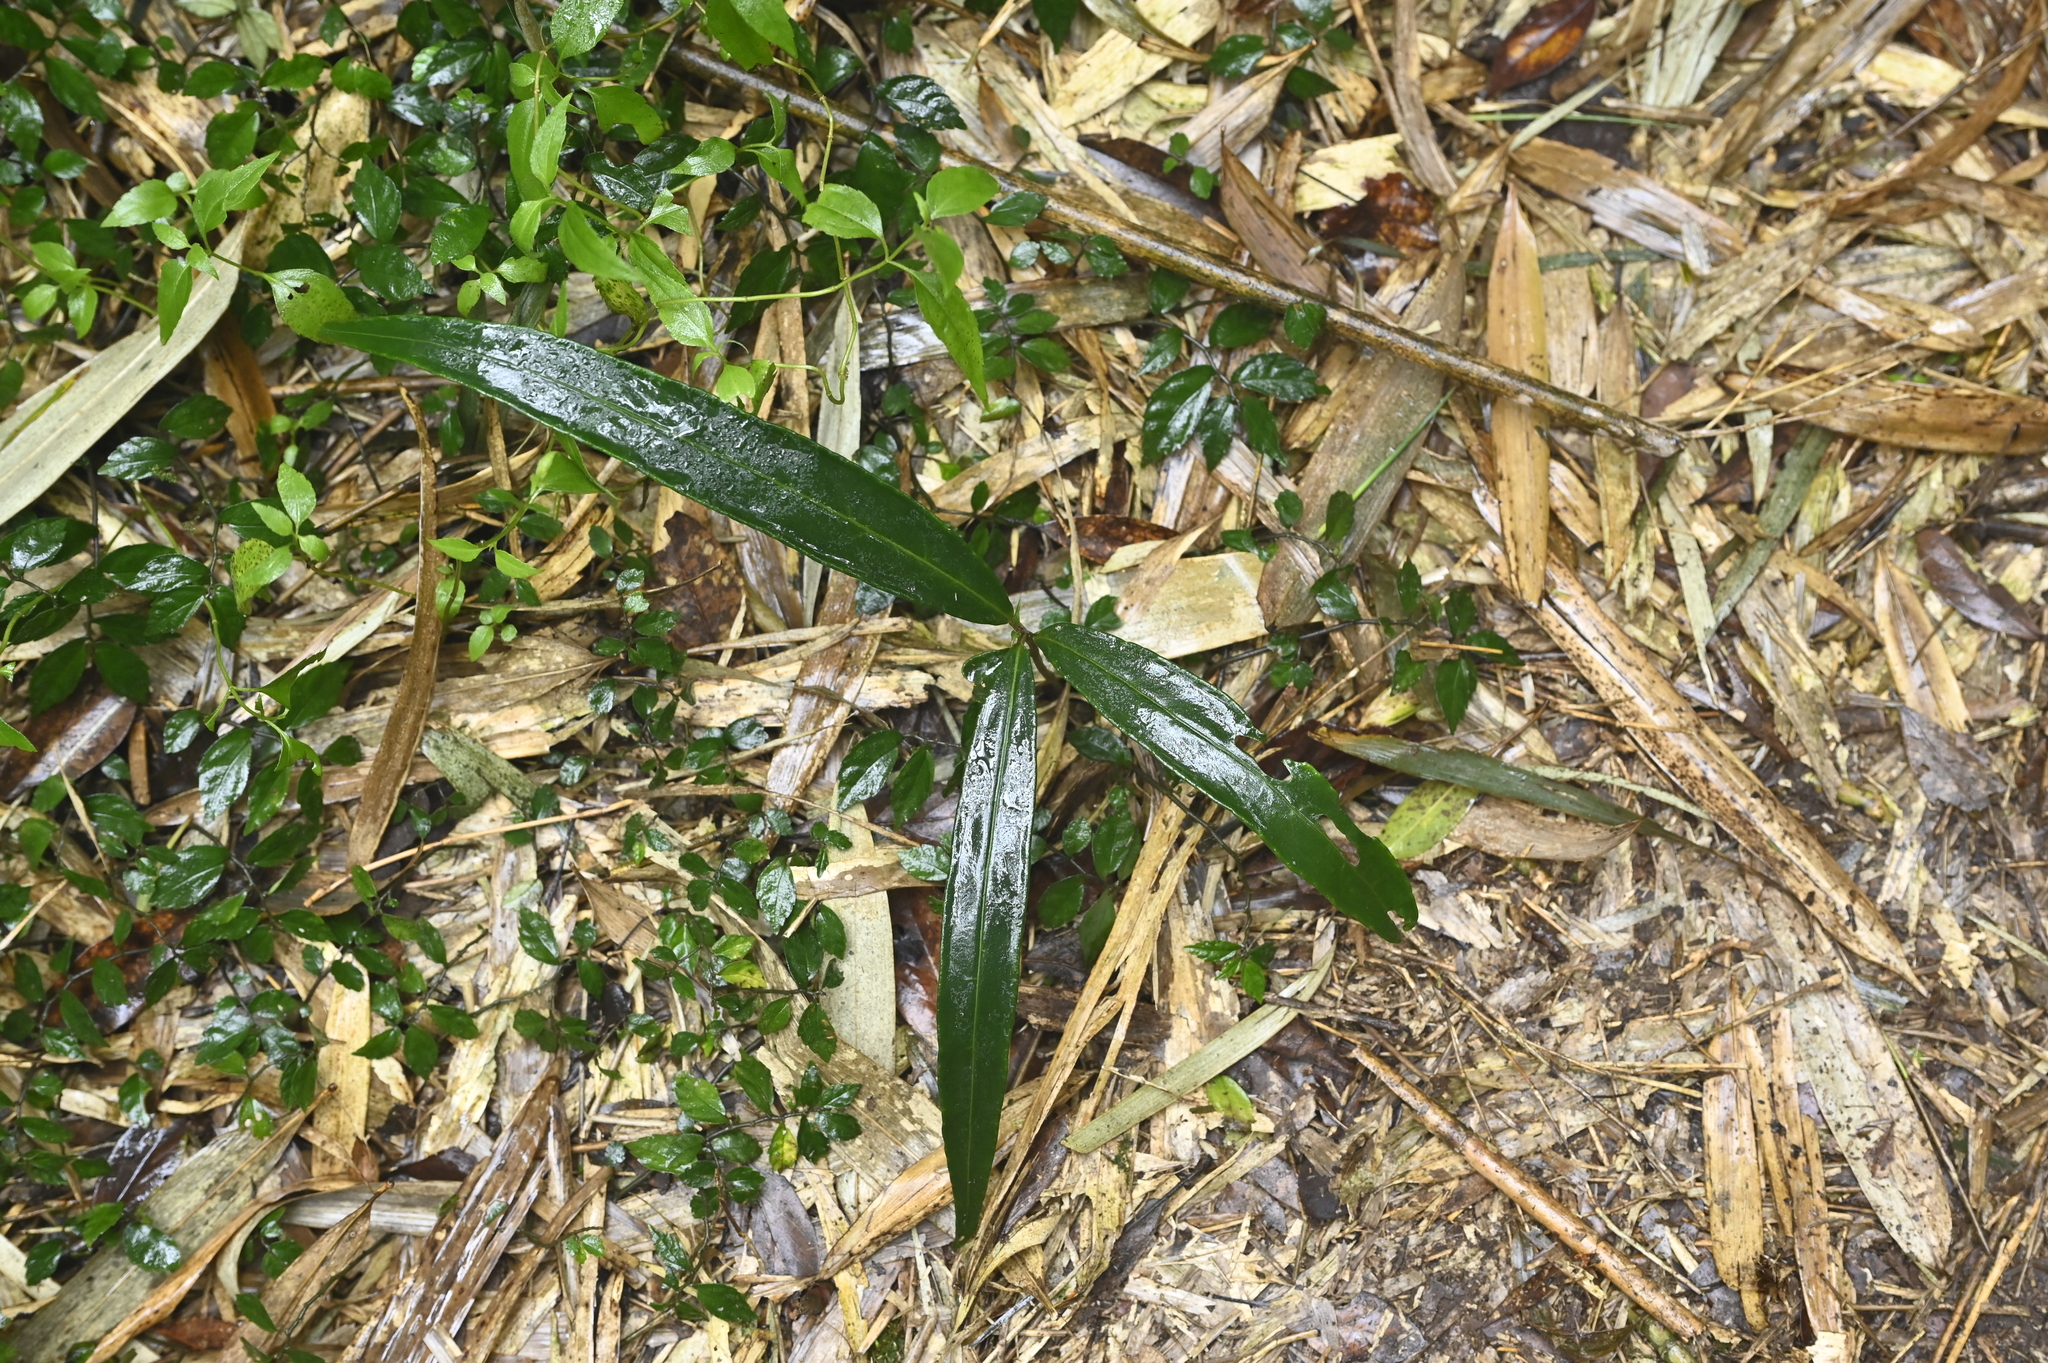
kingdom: Plantae
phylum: Tracheophyta
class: Magnoliopsida
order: Ericales
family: Primulaceae
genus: Ardisia
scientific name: Ardisia crispa
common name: Japanese-holly
